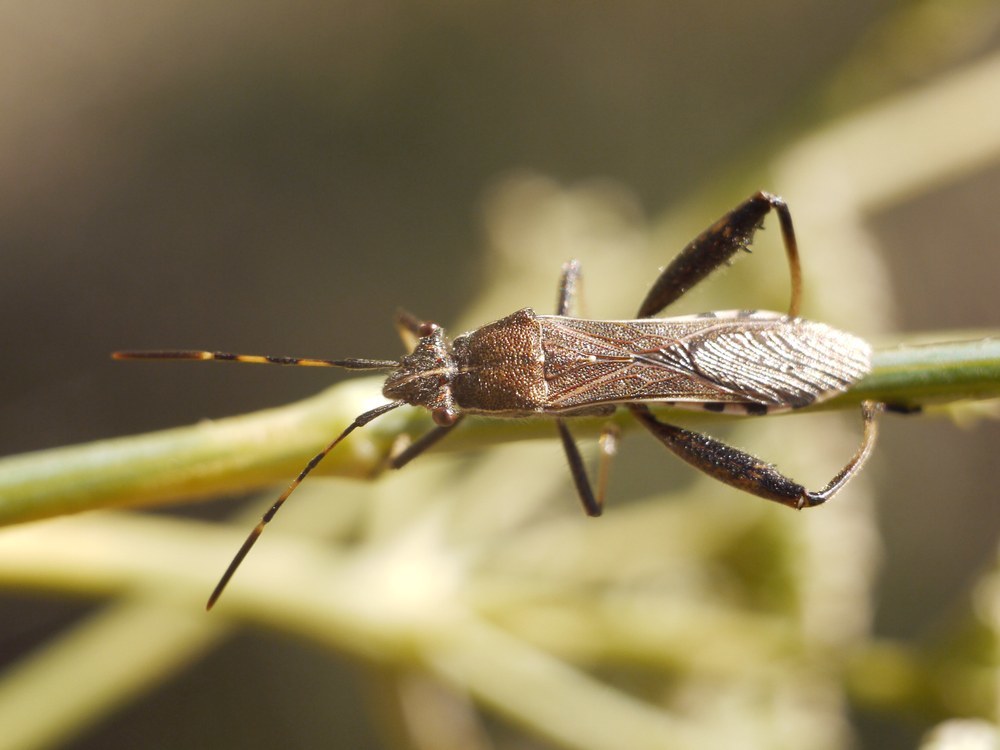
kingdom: Animalia
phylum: Arthropoda
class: Insecta
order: Hemiptera
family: Alydidae
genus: Camptopus
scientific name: Camptopus lateralis
